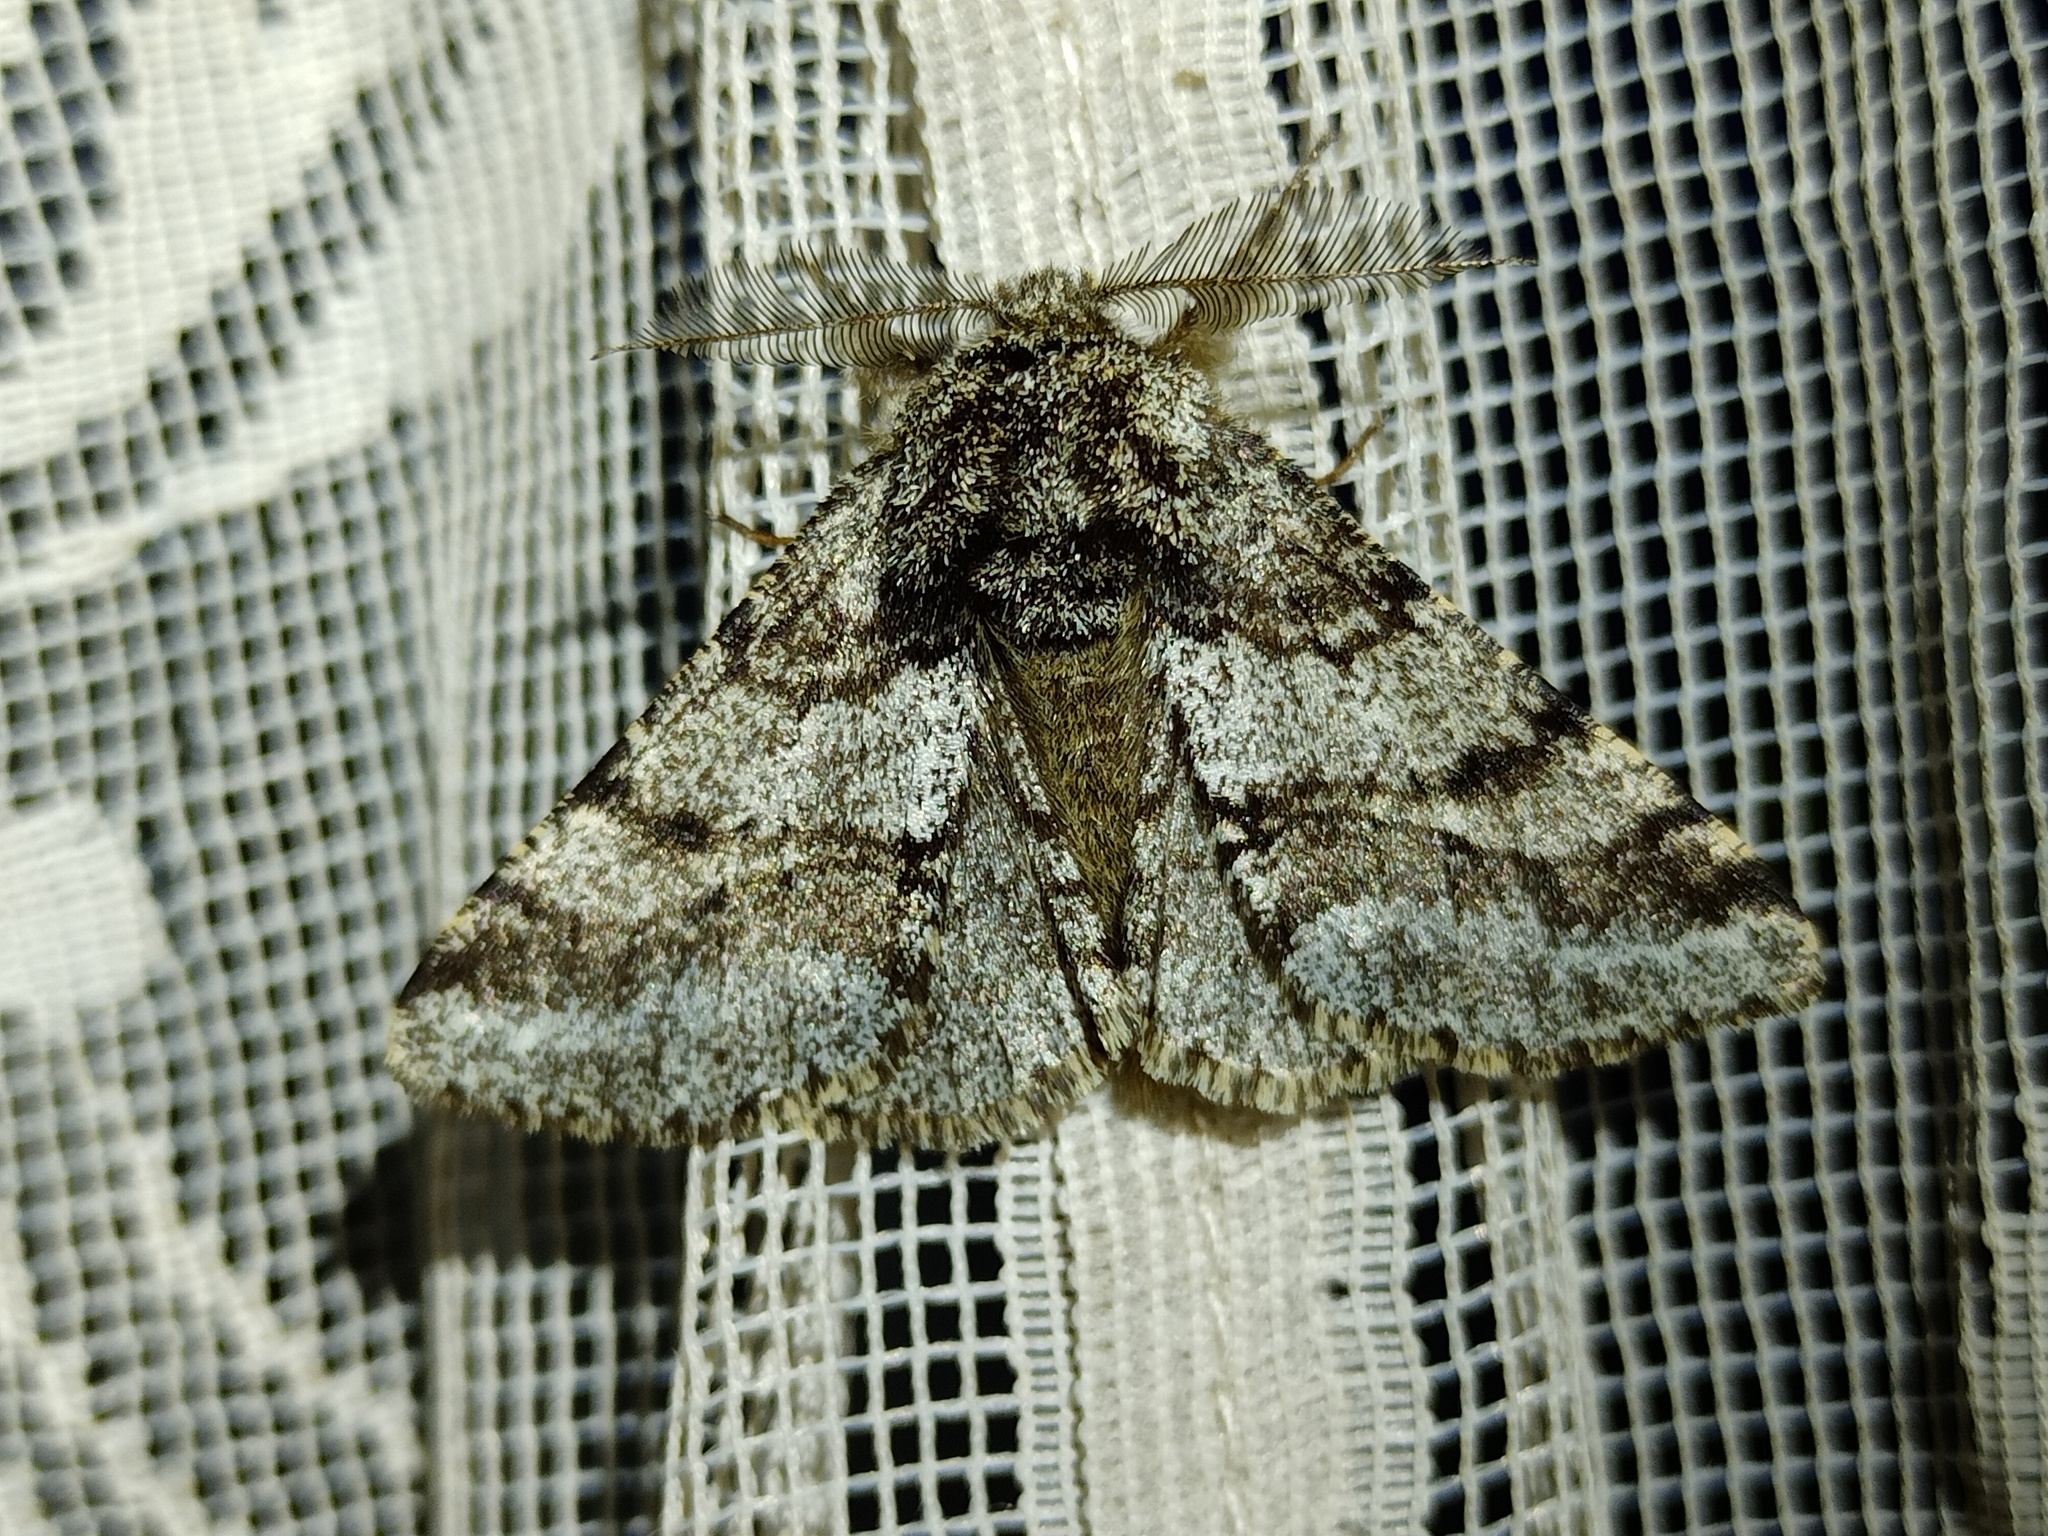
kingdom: Animalia
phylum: Arthropoda
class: Insecta
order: Lepidoptera
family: Geometridae
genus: Lycia
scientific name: Lycia hirtaria
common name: Brindled beauty
